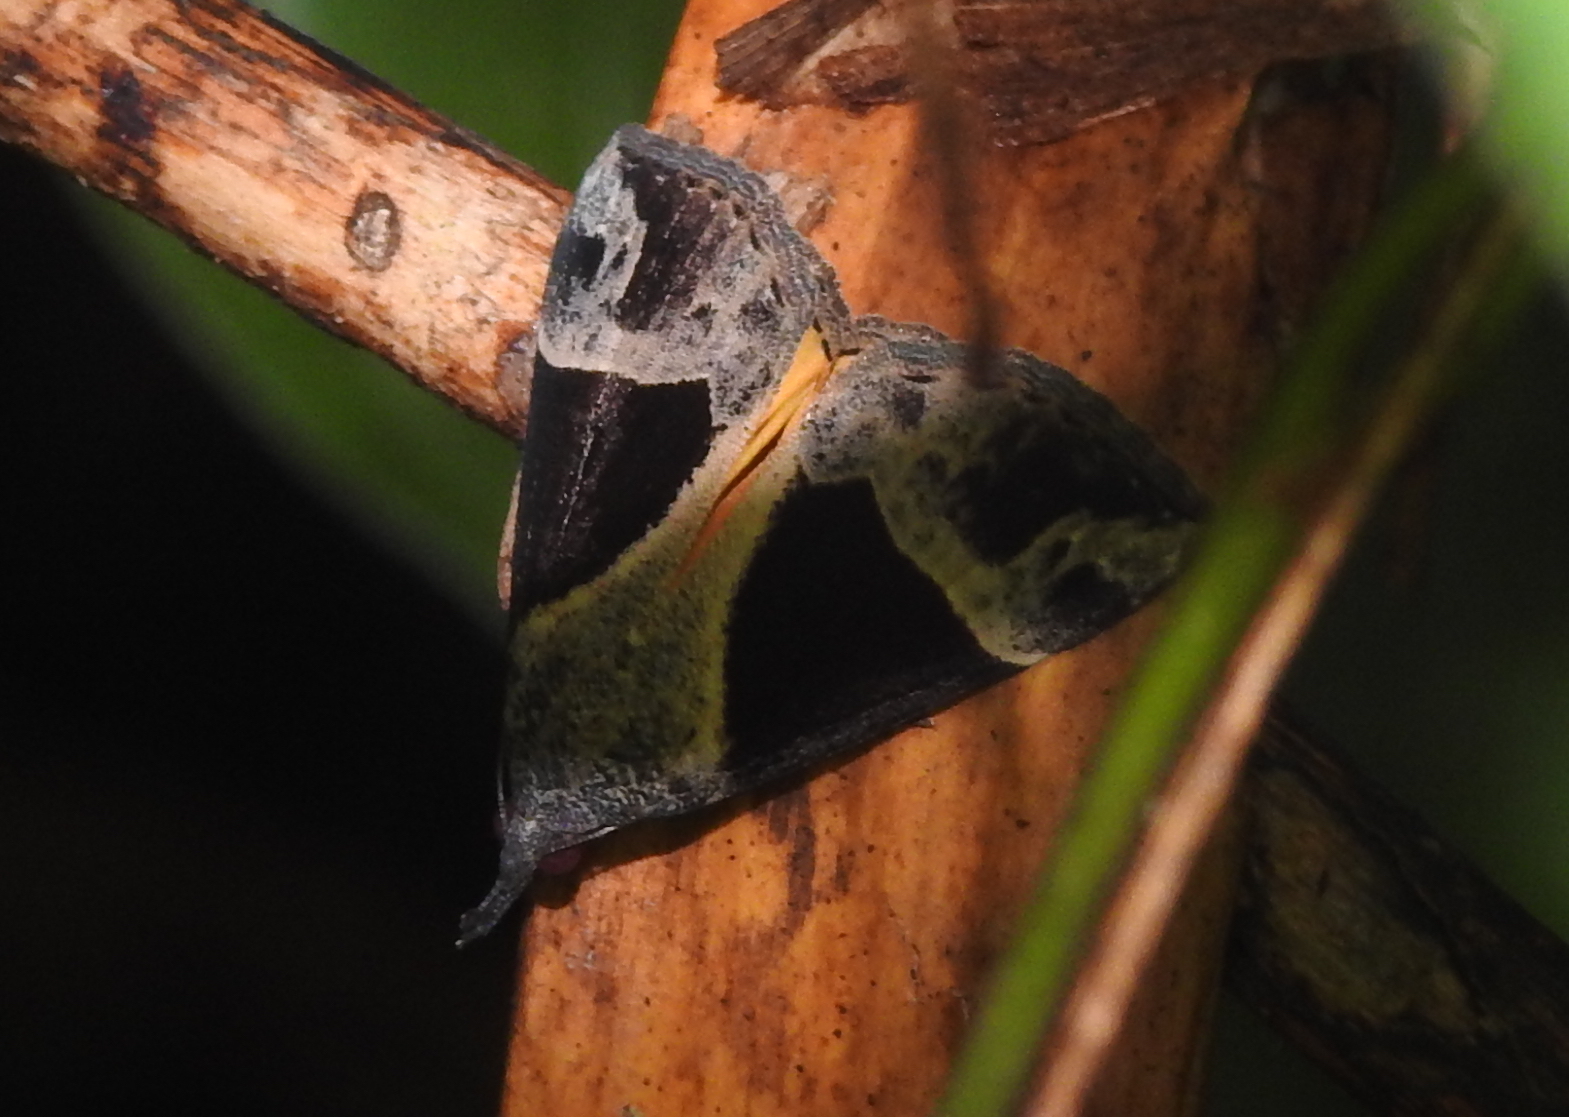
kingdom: Animalia
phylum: Arthropoda
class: Insecta
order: Lepidoptera
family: Erebidae
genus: Hypena
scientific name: Hypena quadralis
